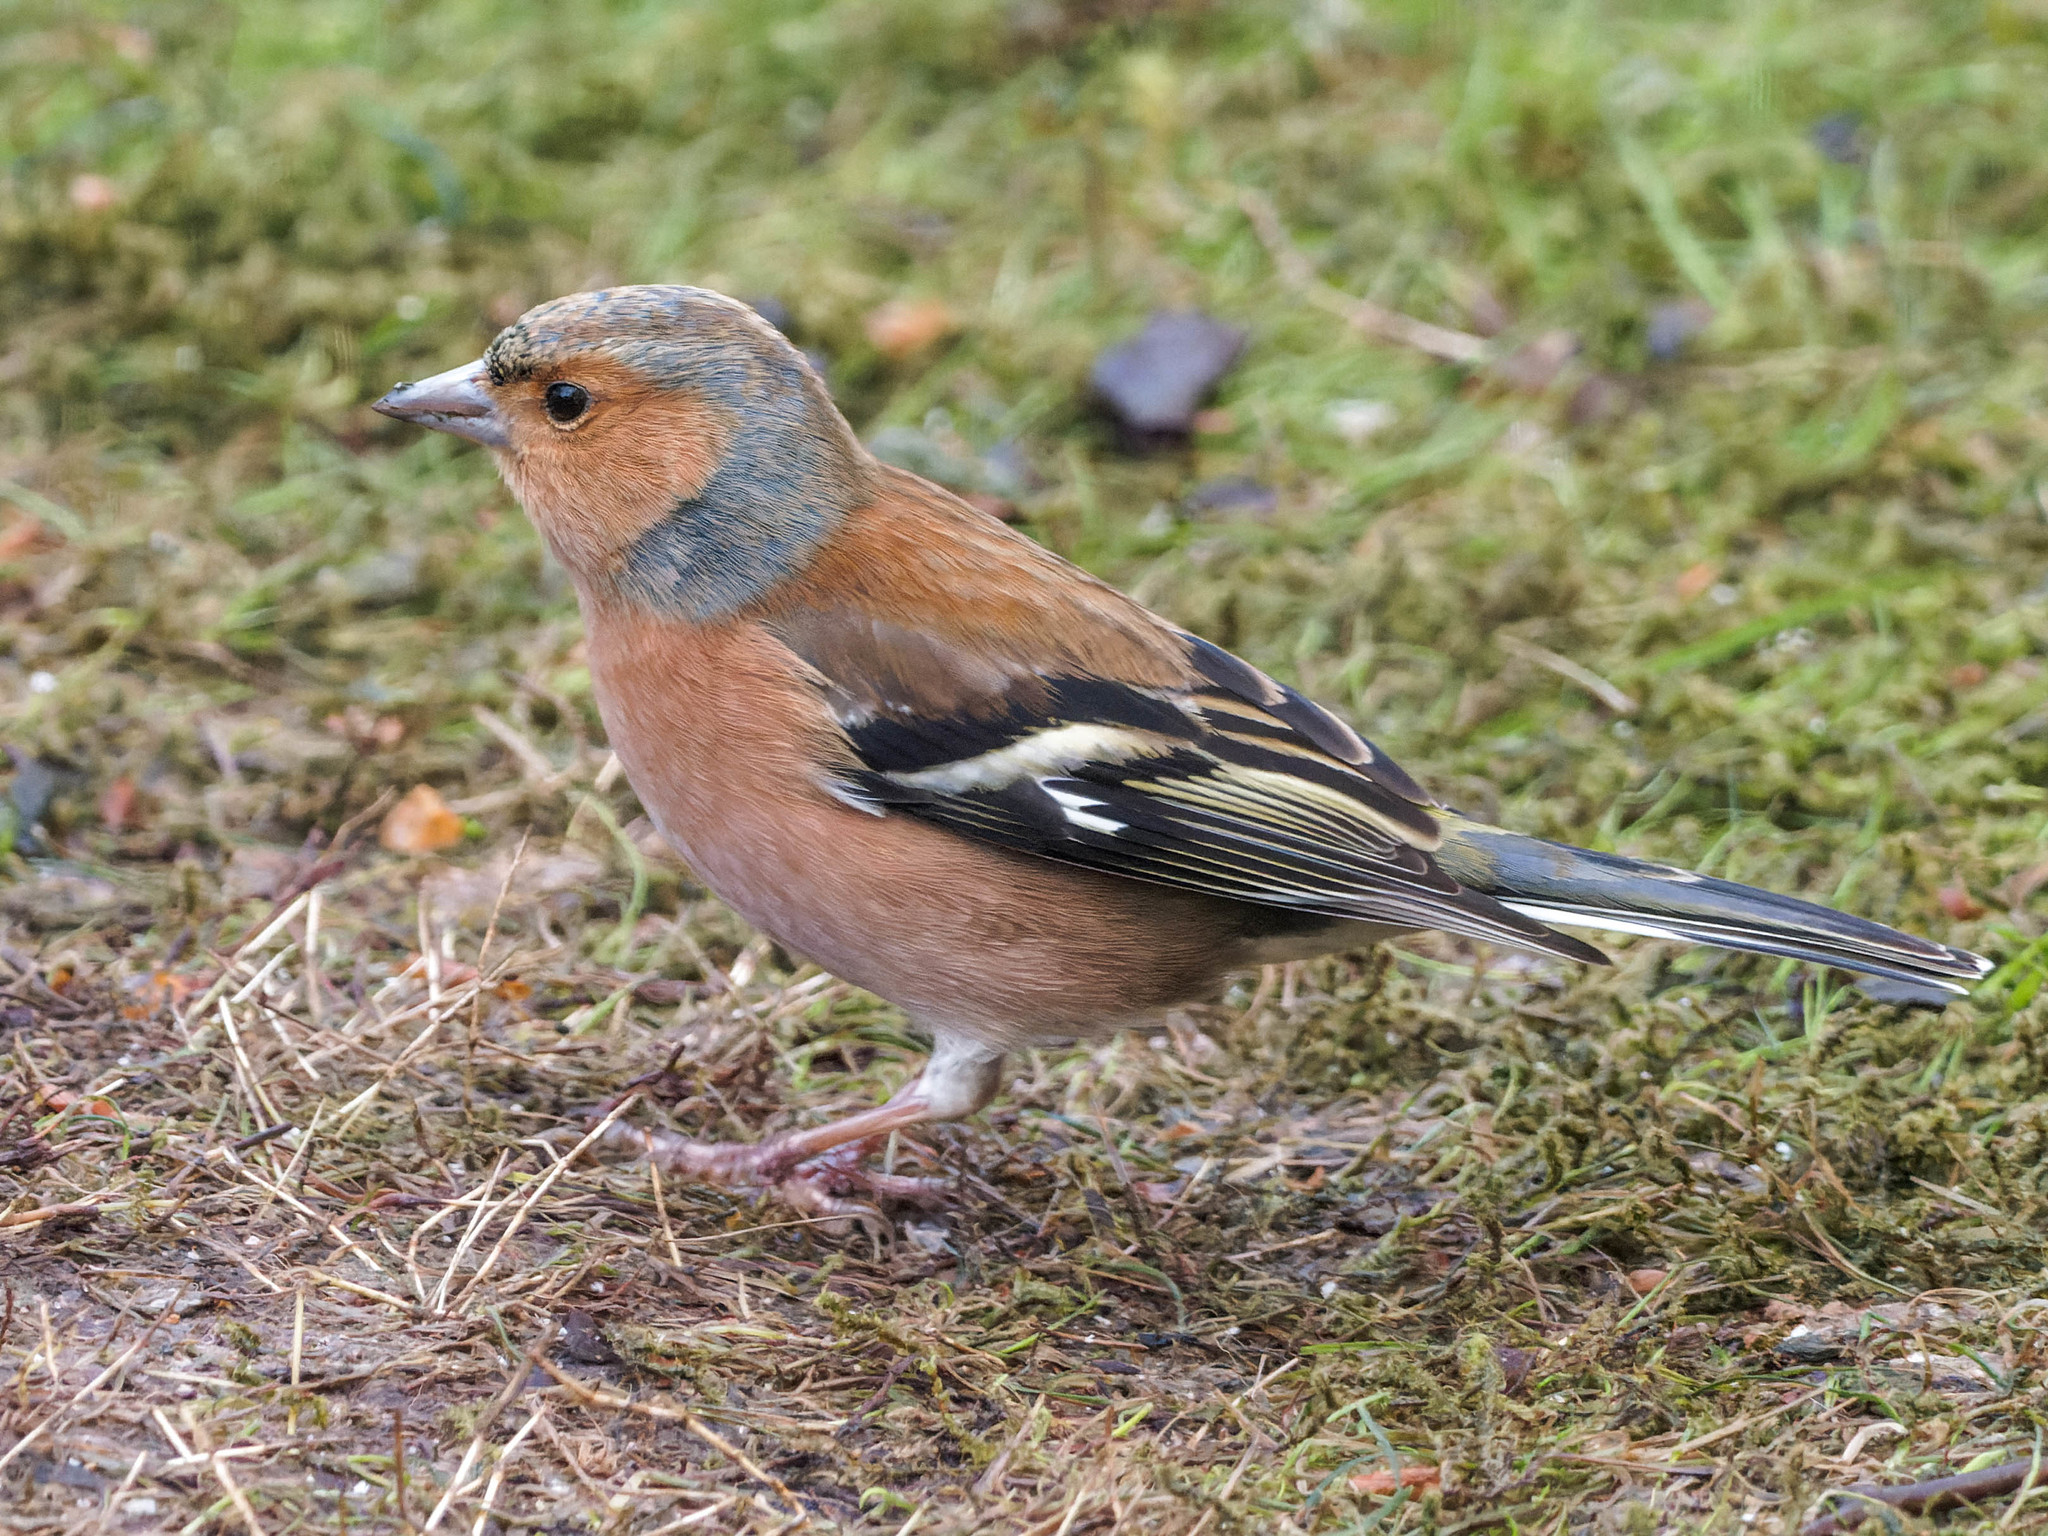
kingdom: Animalia
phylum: Chordata
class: Aves
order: Passeriformes
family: Fringillidae
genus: Fringilla
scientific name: Fringilla coelebs
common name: Common chaffinch
